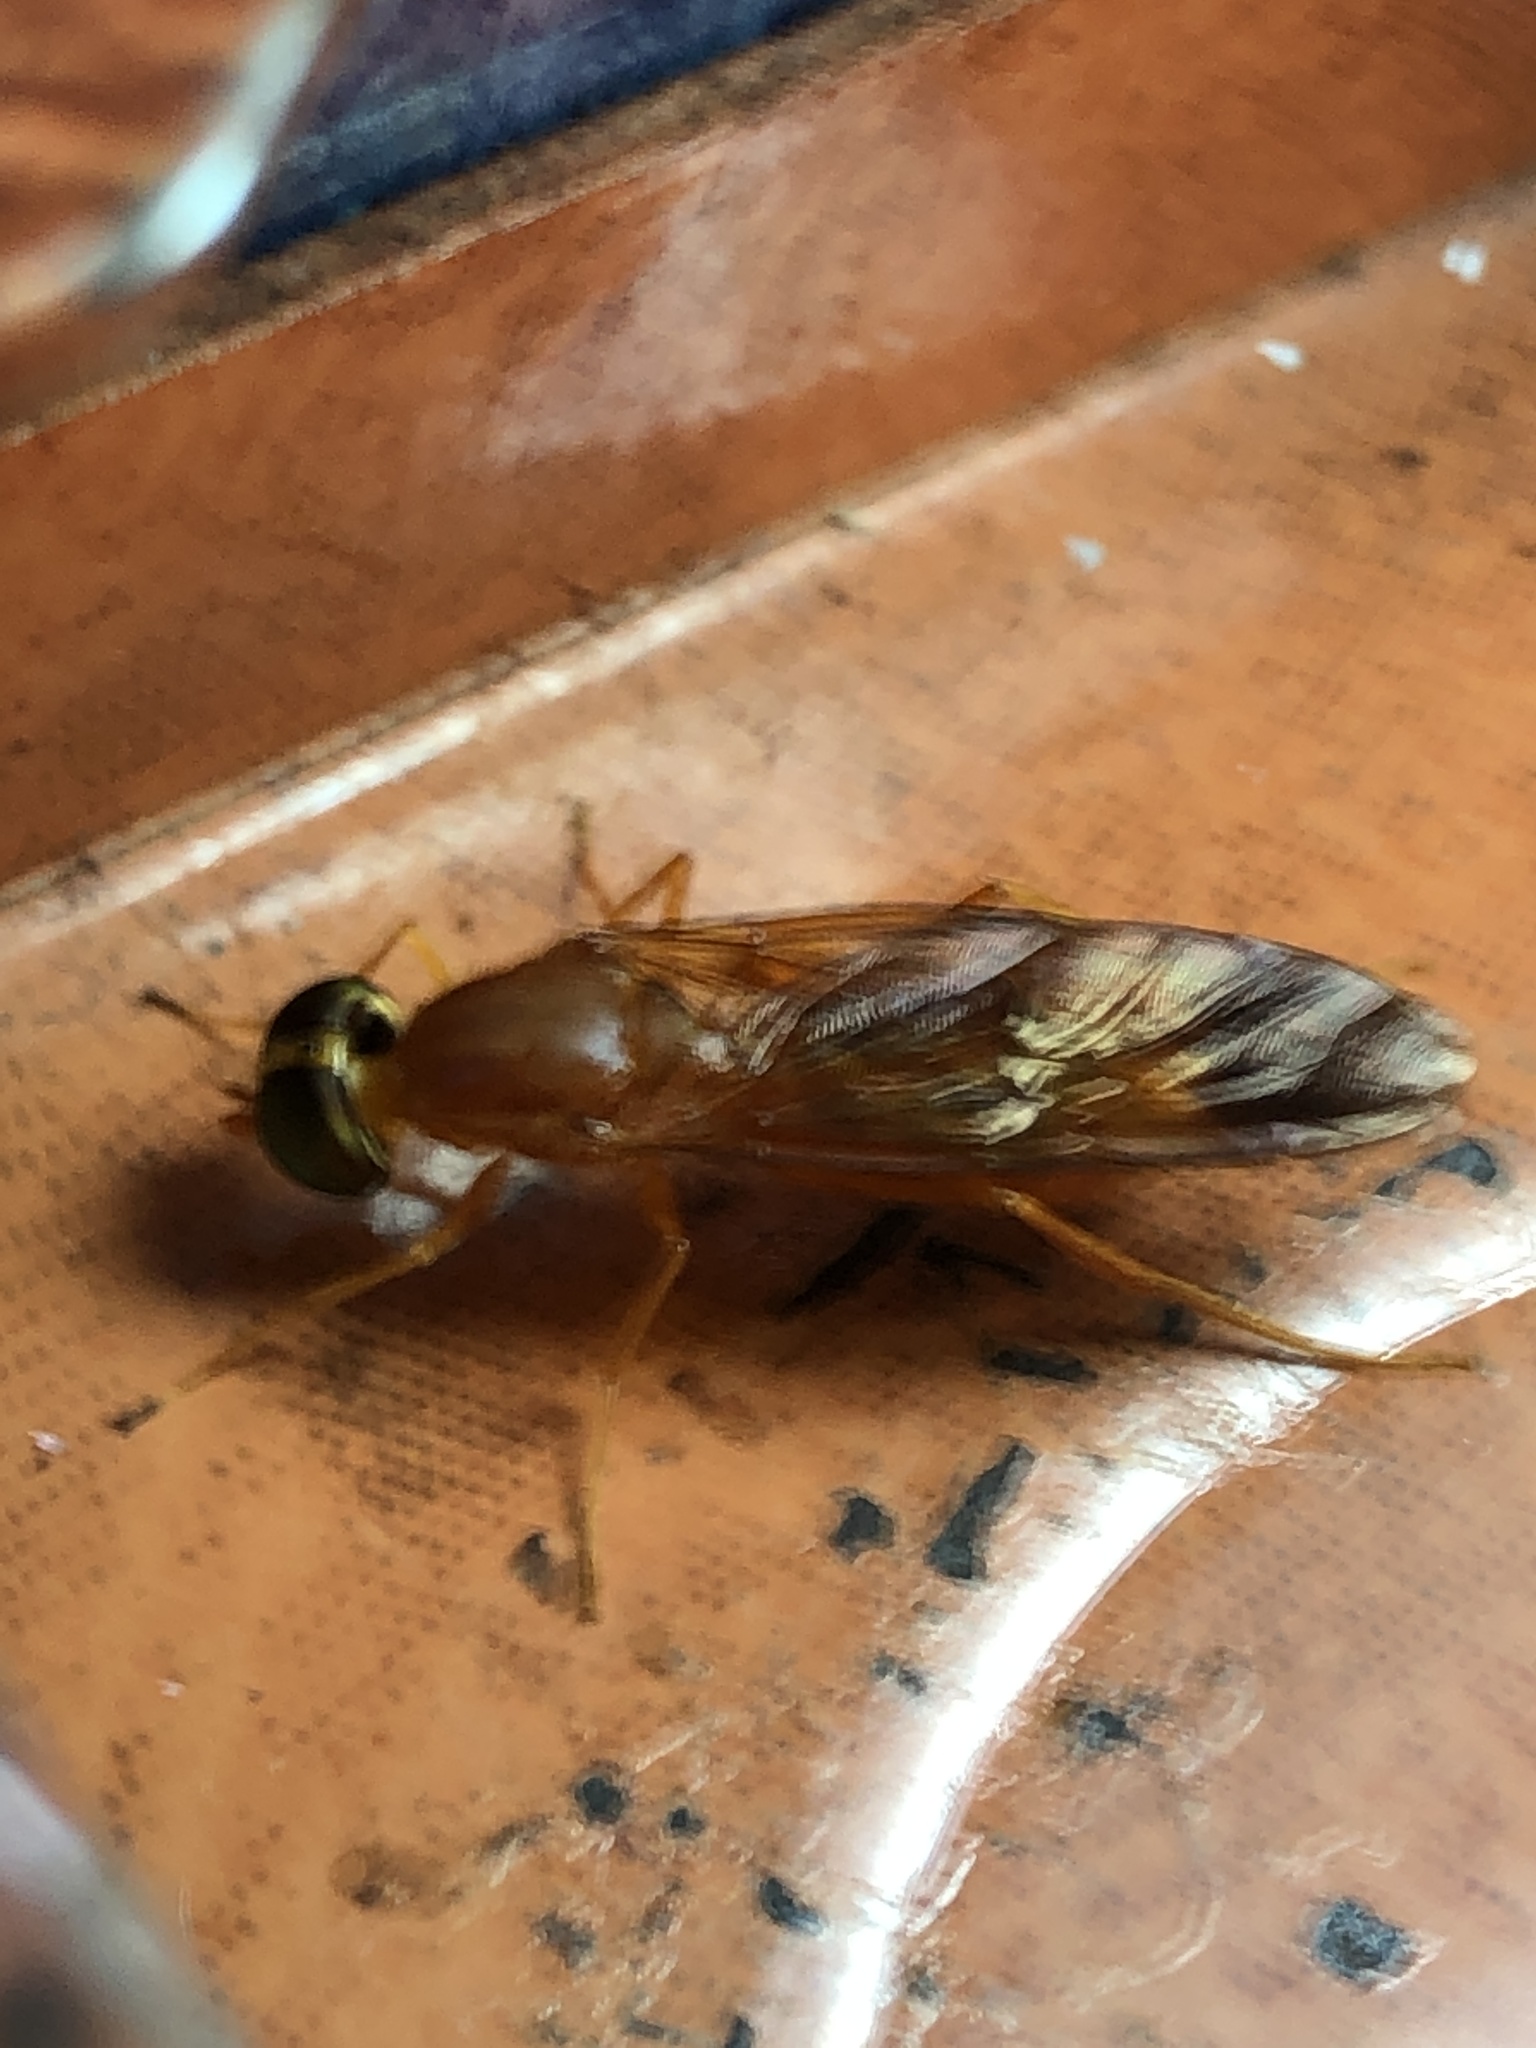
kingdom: Animalia
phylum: Arthropoda
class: Insecta
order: Diptera
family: Stratiomyidae
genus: Ptecticus
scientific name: Ptecticus aurifer
